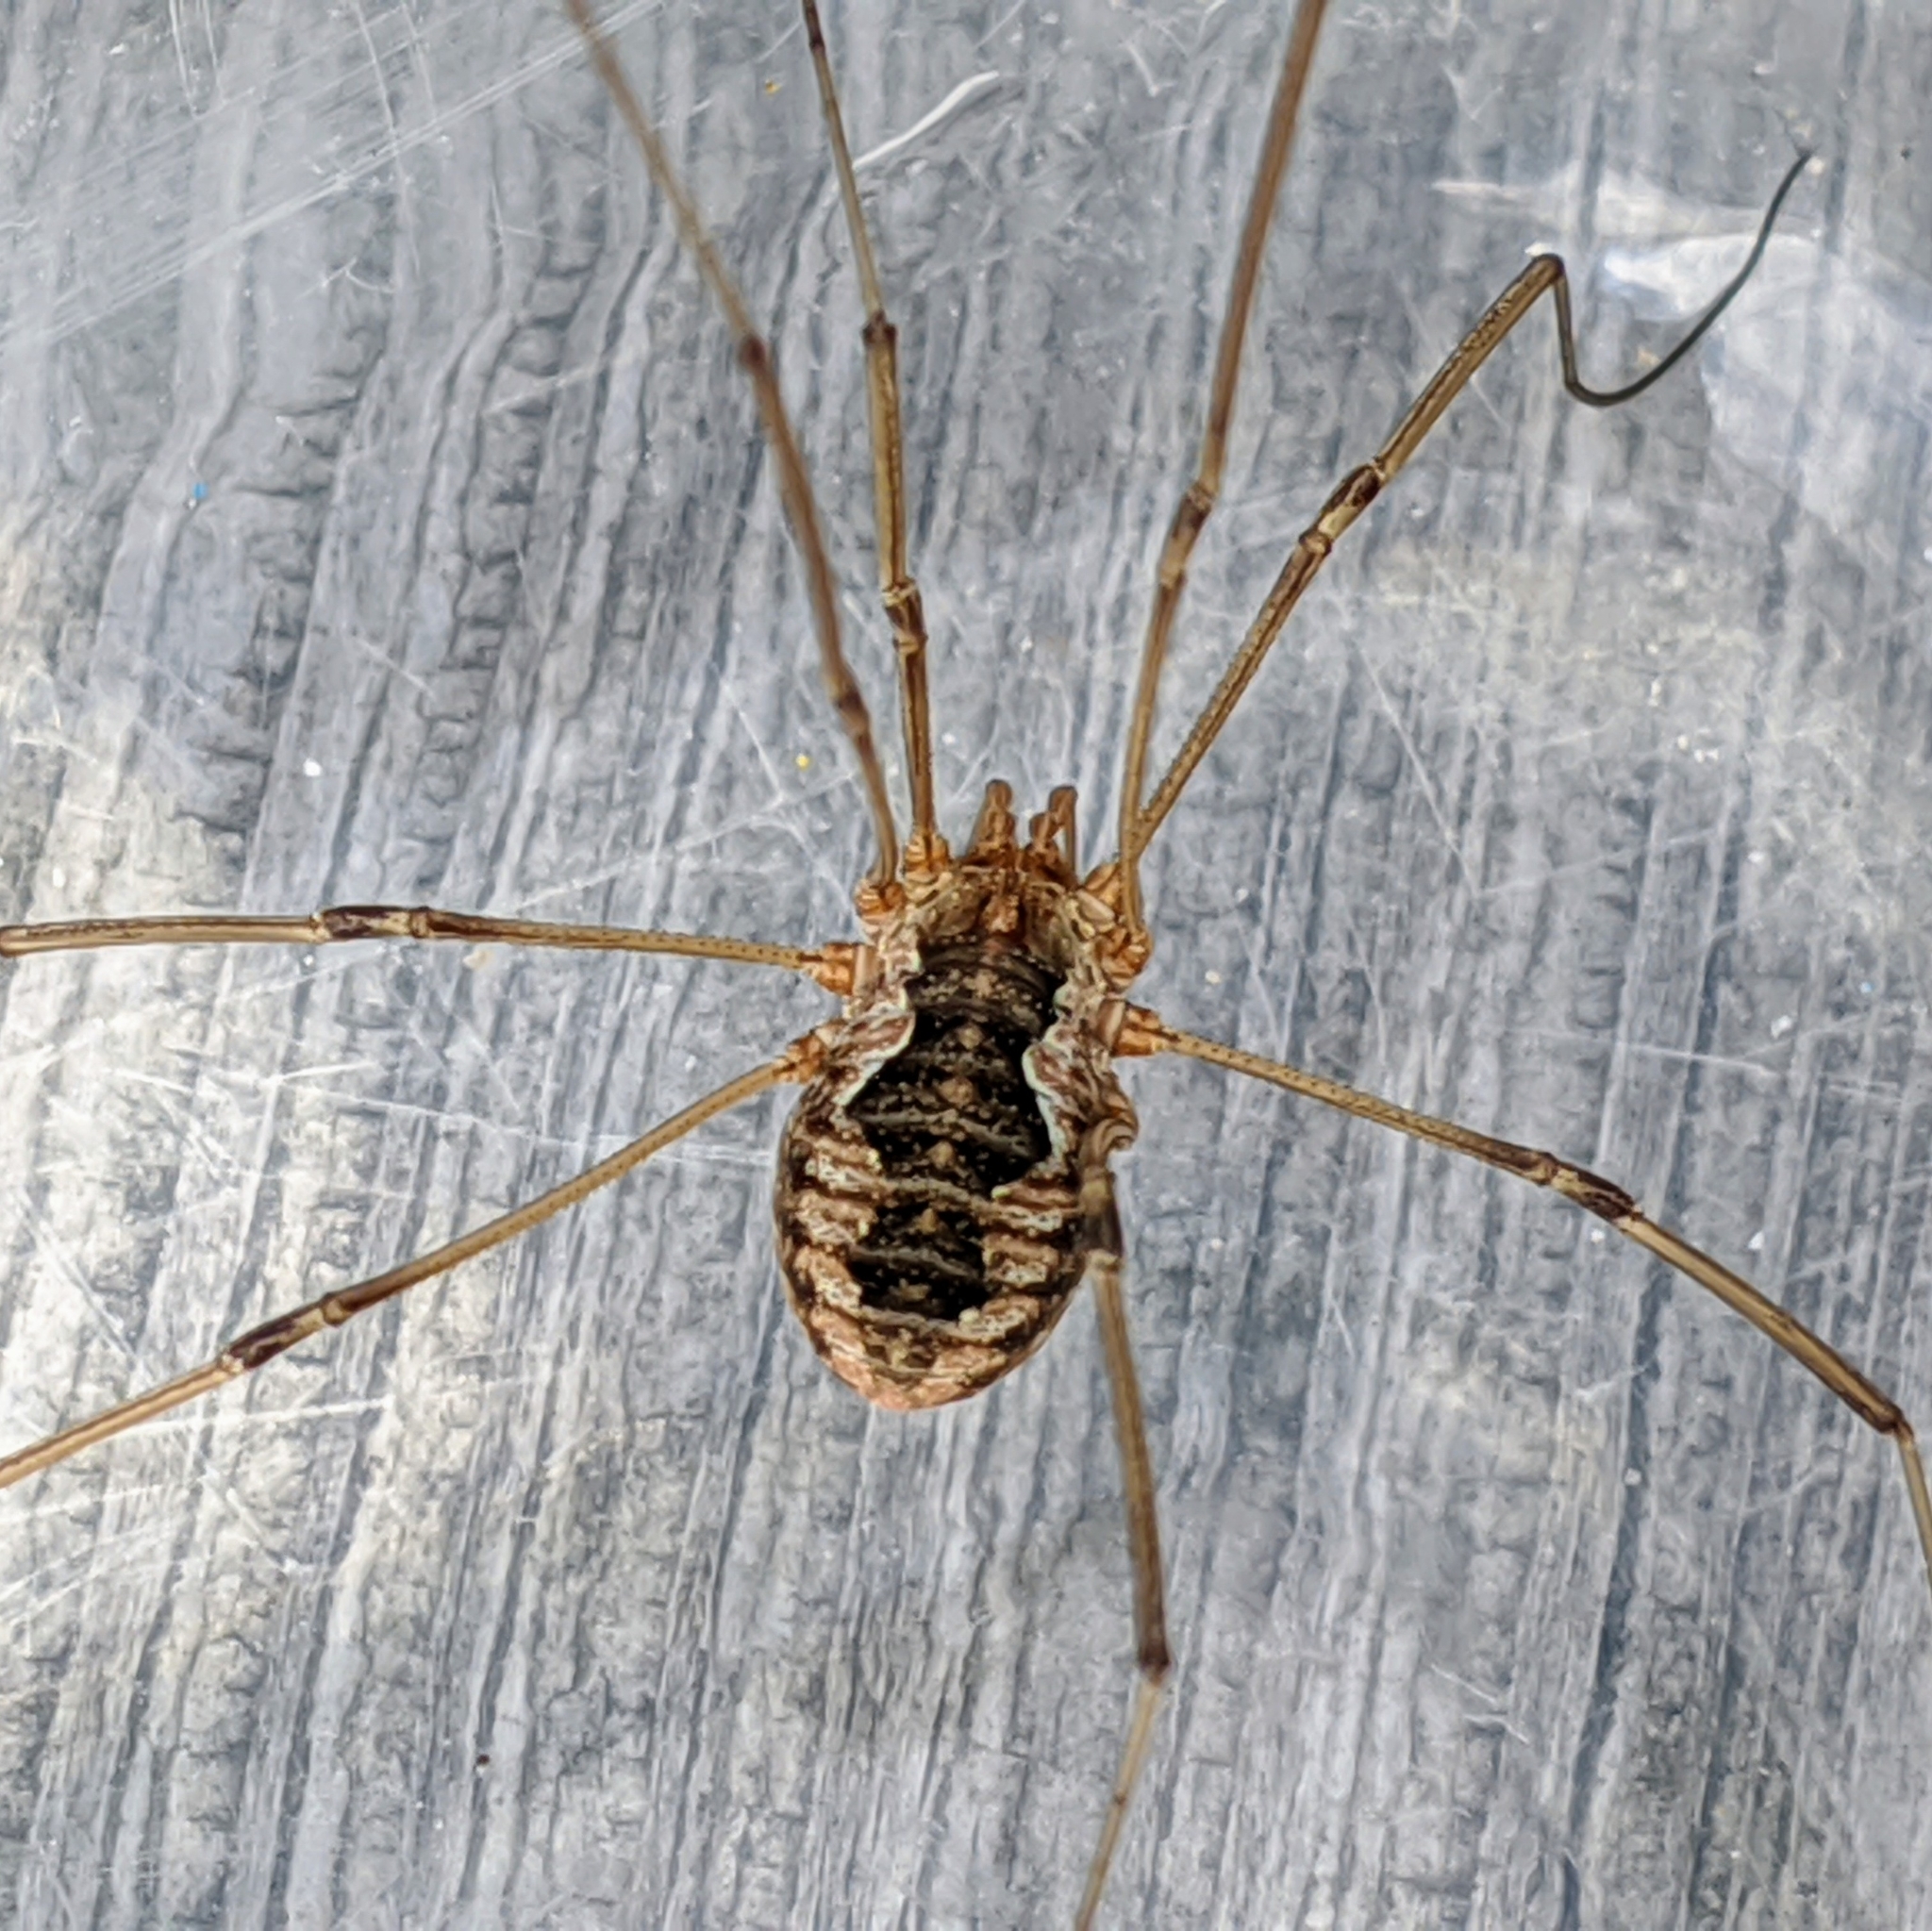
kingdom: Animalia
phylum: Arthropoda
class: Arachnida
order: Opiliones
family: Phalangiidae
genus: Phalangium
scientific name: Phalangium opilio
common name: Daddy longleg
